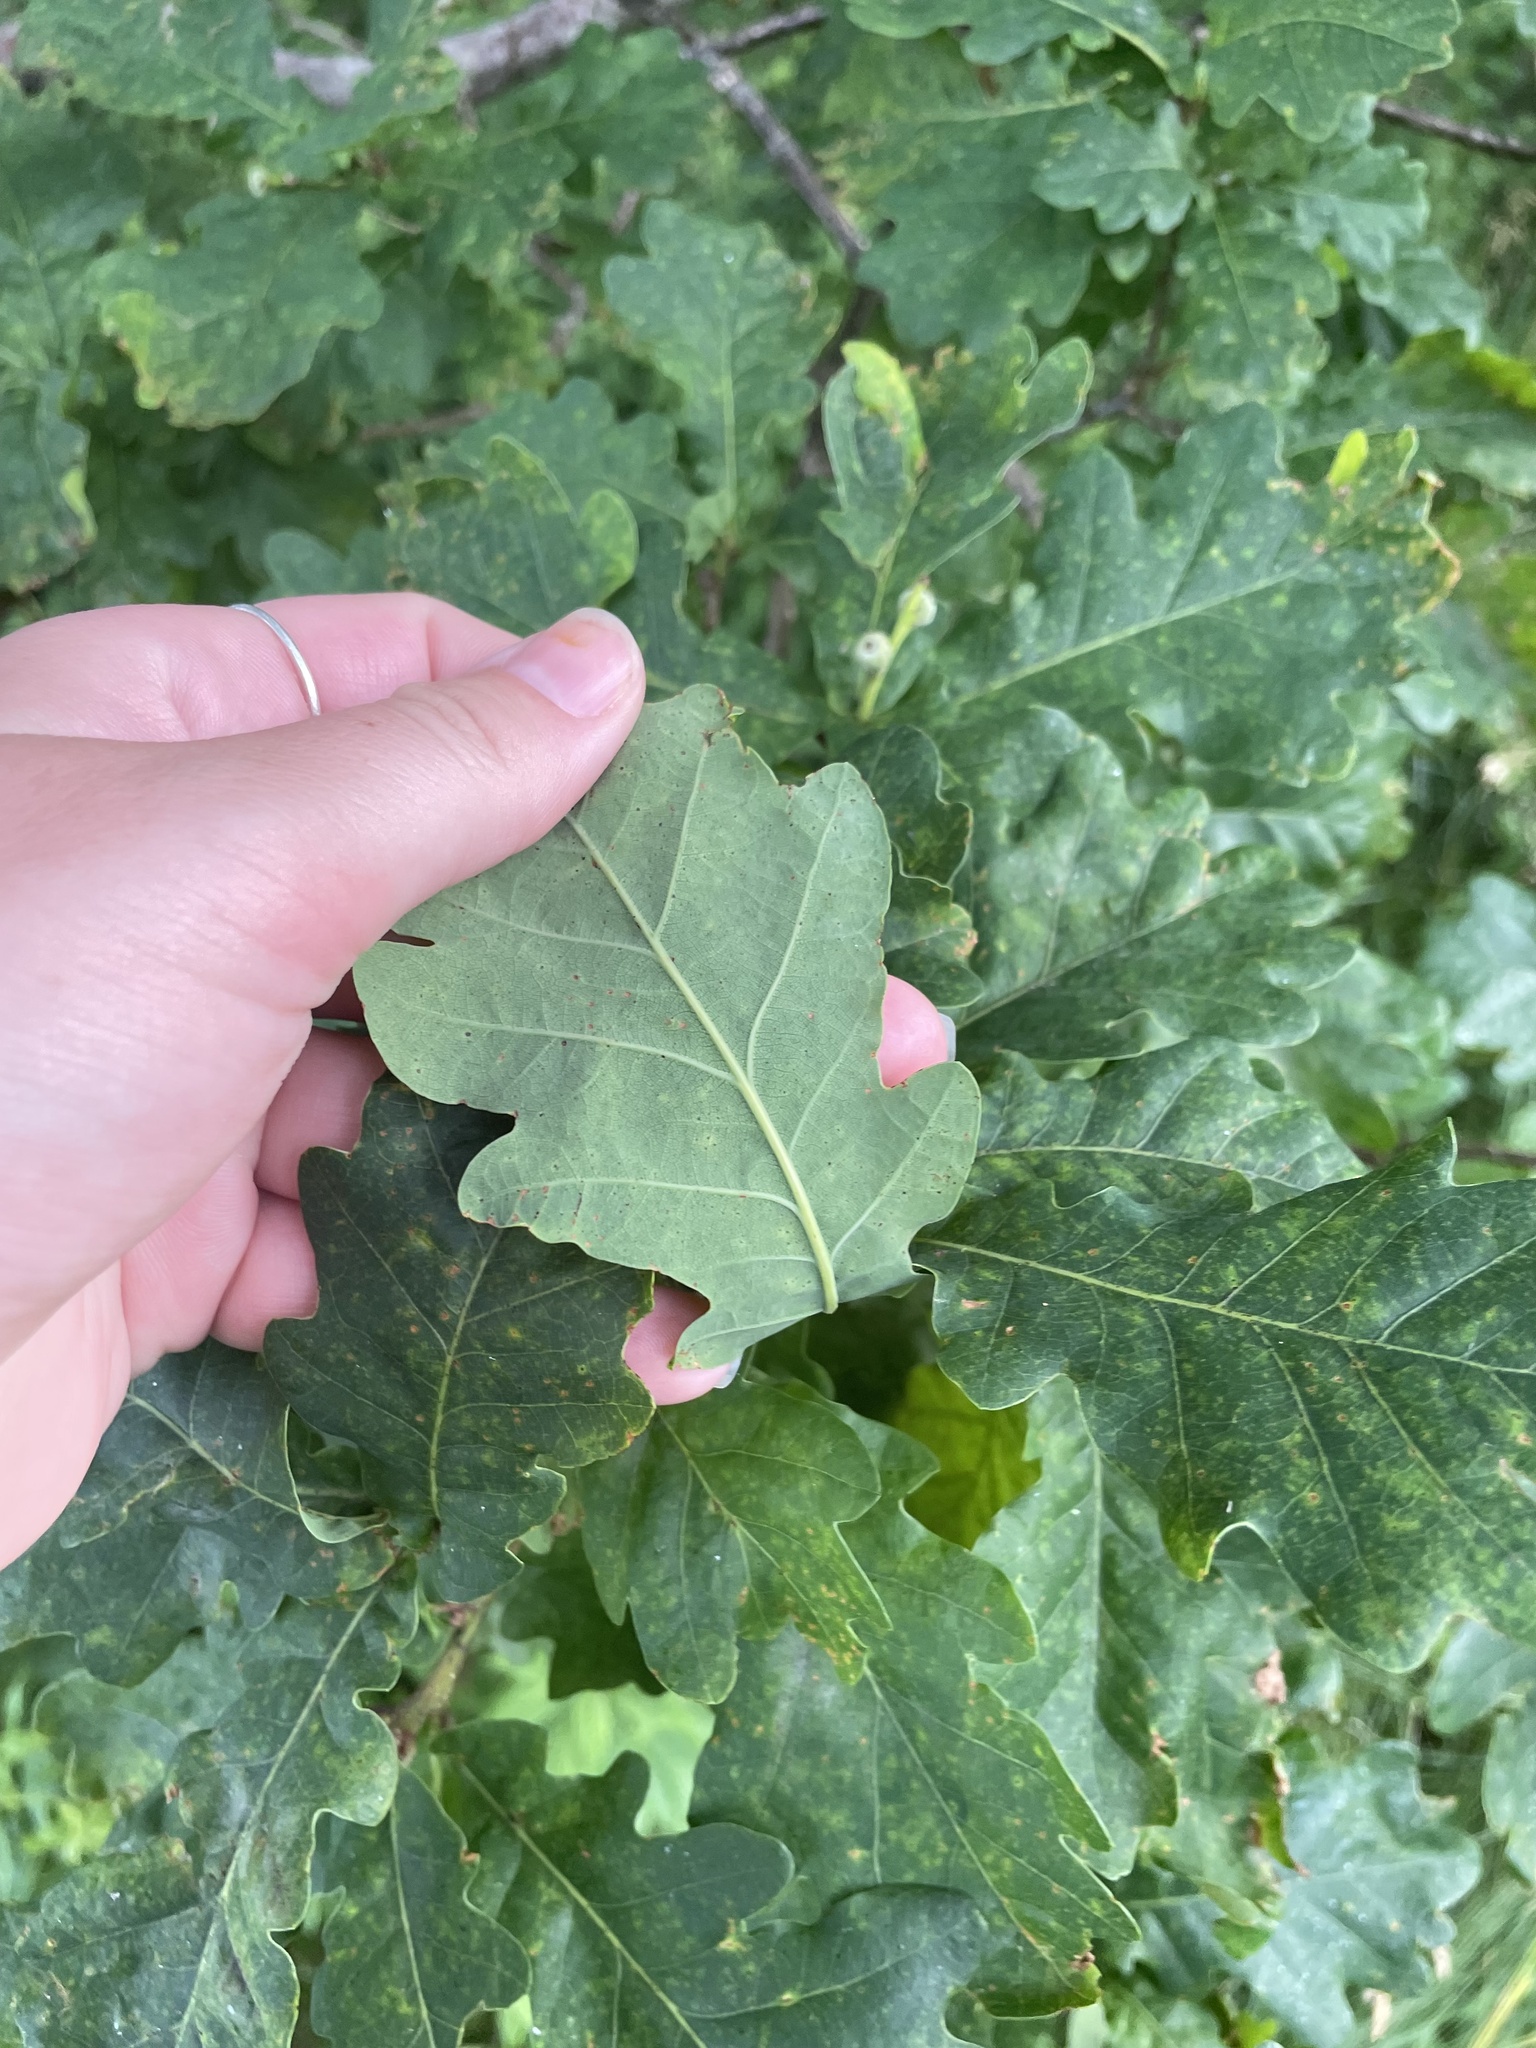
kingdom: Plantae
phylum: Tracheophyta
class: Magnoliopsida
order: Fagales
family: Fagaceae
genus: Quercus
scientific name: Quercus robur
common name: Pedunculate oak
